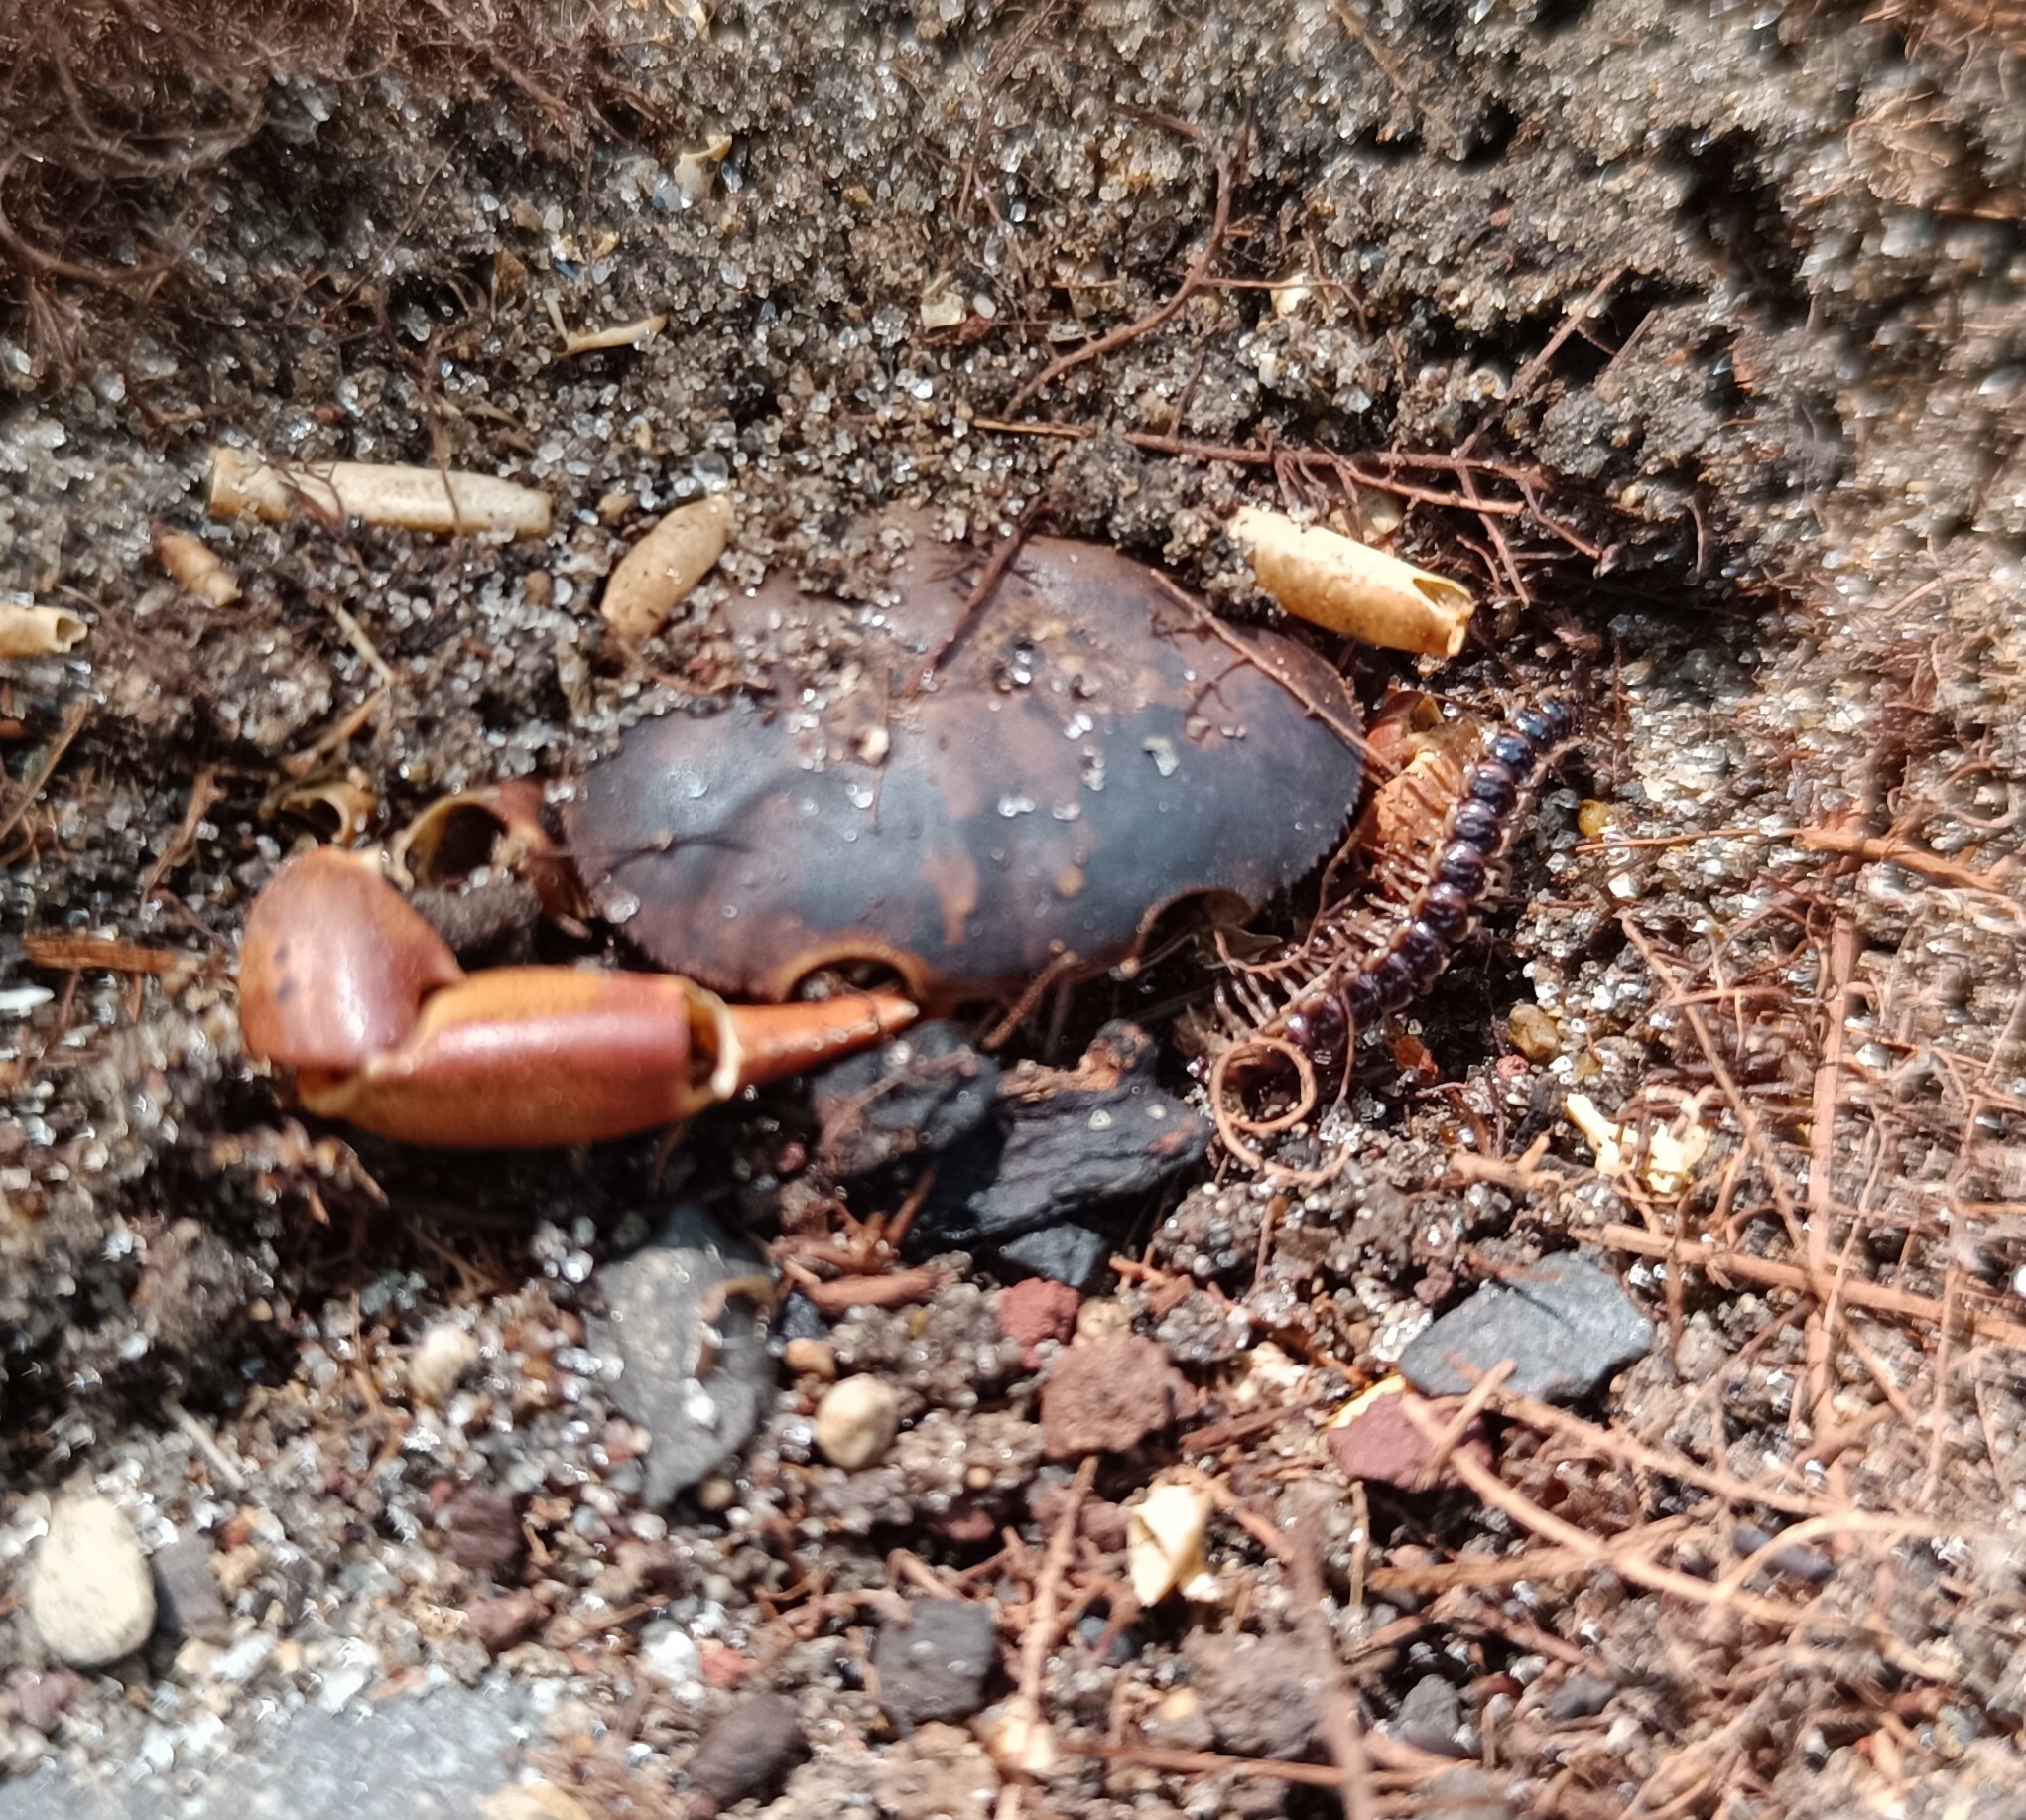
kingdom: Animalia
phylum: Arthropoda
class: Diplopoda
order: Polydesmida
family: Paradoxosomatidae
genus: Oxidus
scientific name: Oxidus gracilis
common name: Greenhouse millipede
